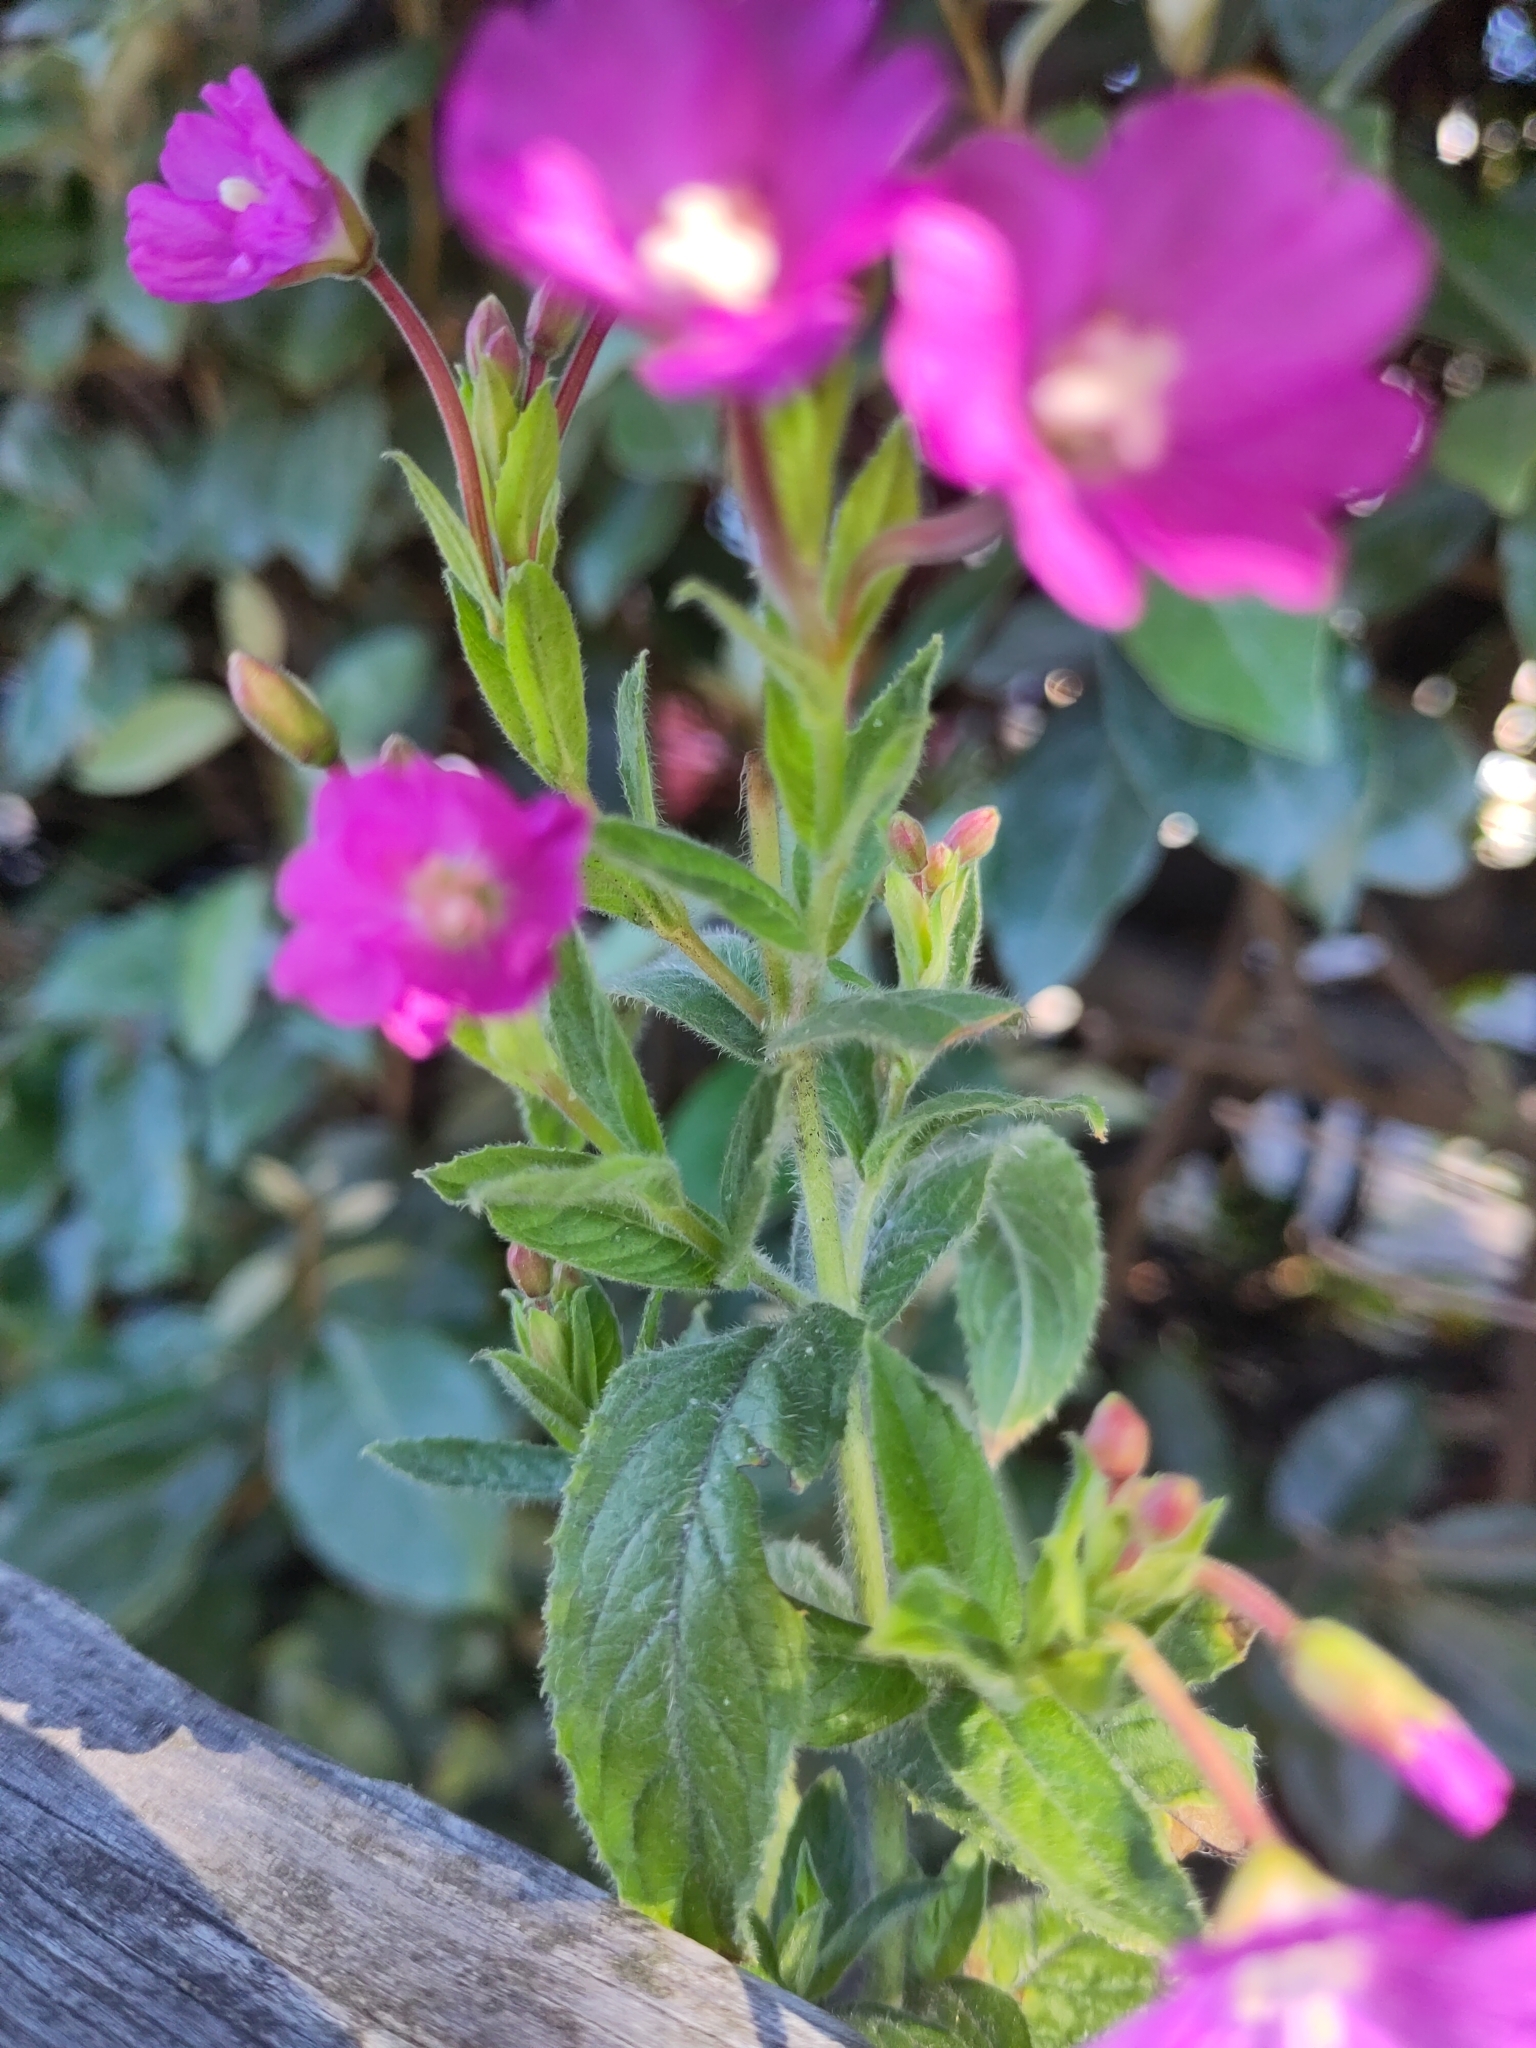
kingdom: Plantae
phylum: Tracheophyta
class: Magnoliopsida
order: Myrtales
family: Onagraceae
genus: Epilobium
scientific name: Epilobium hirsutum
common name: Great willowherb
